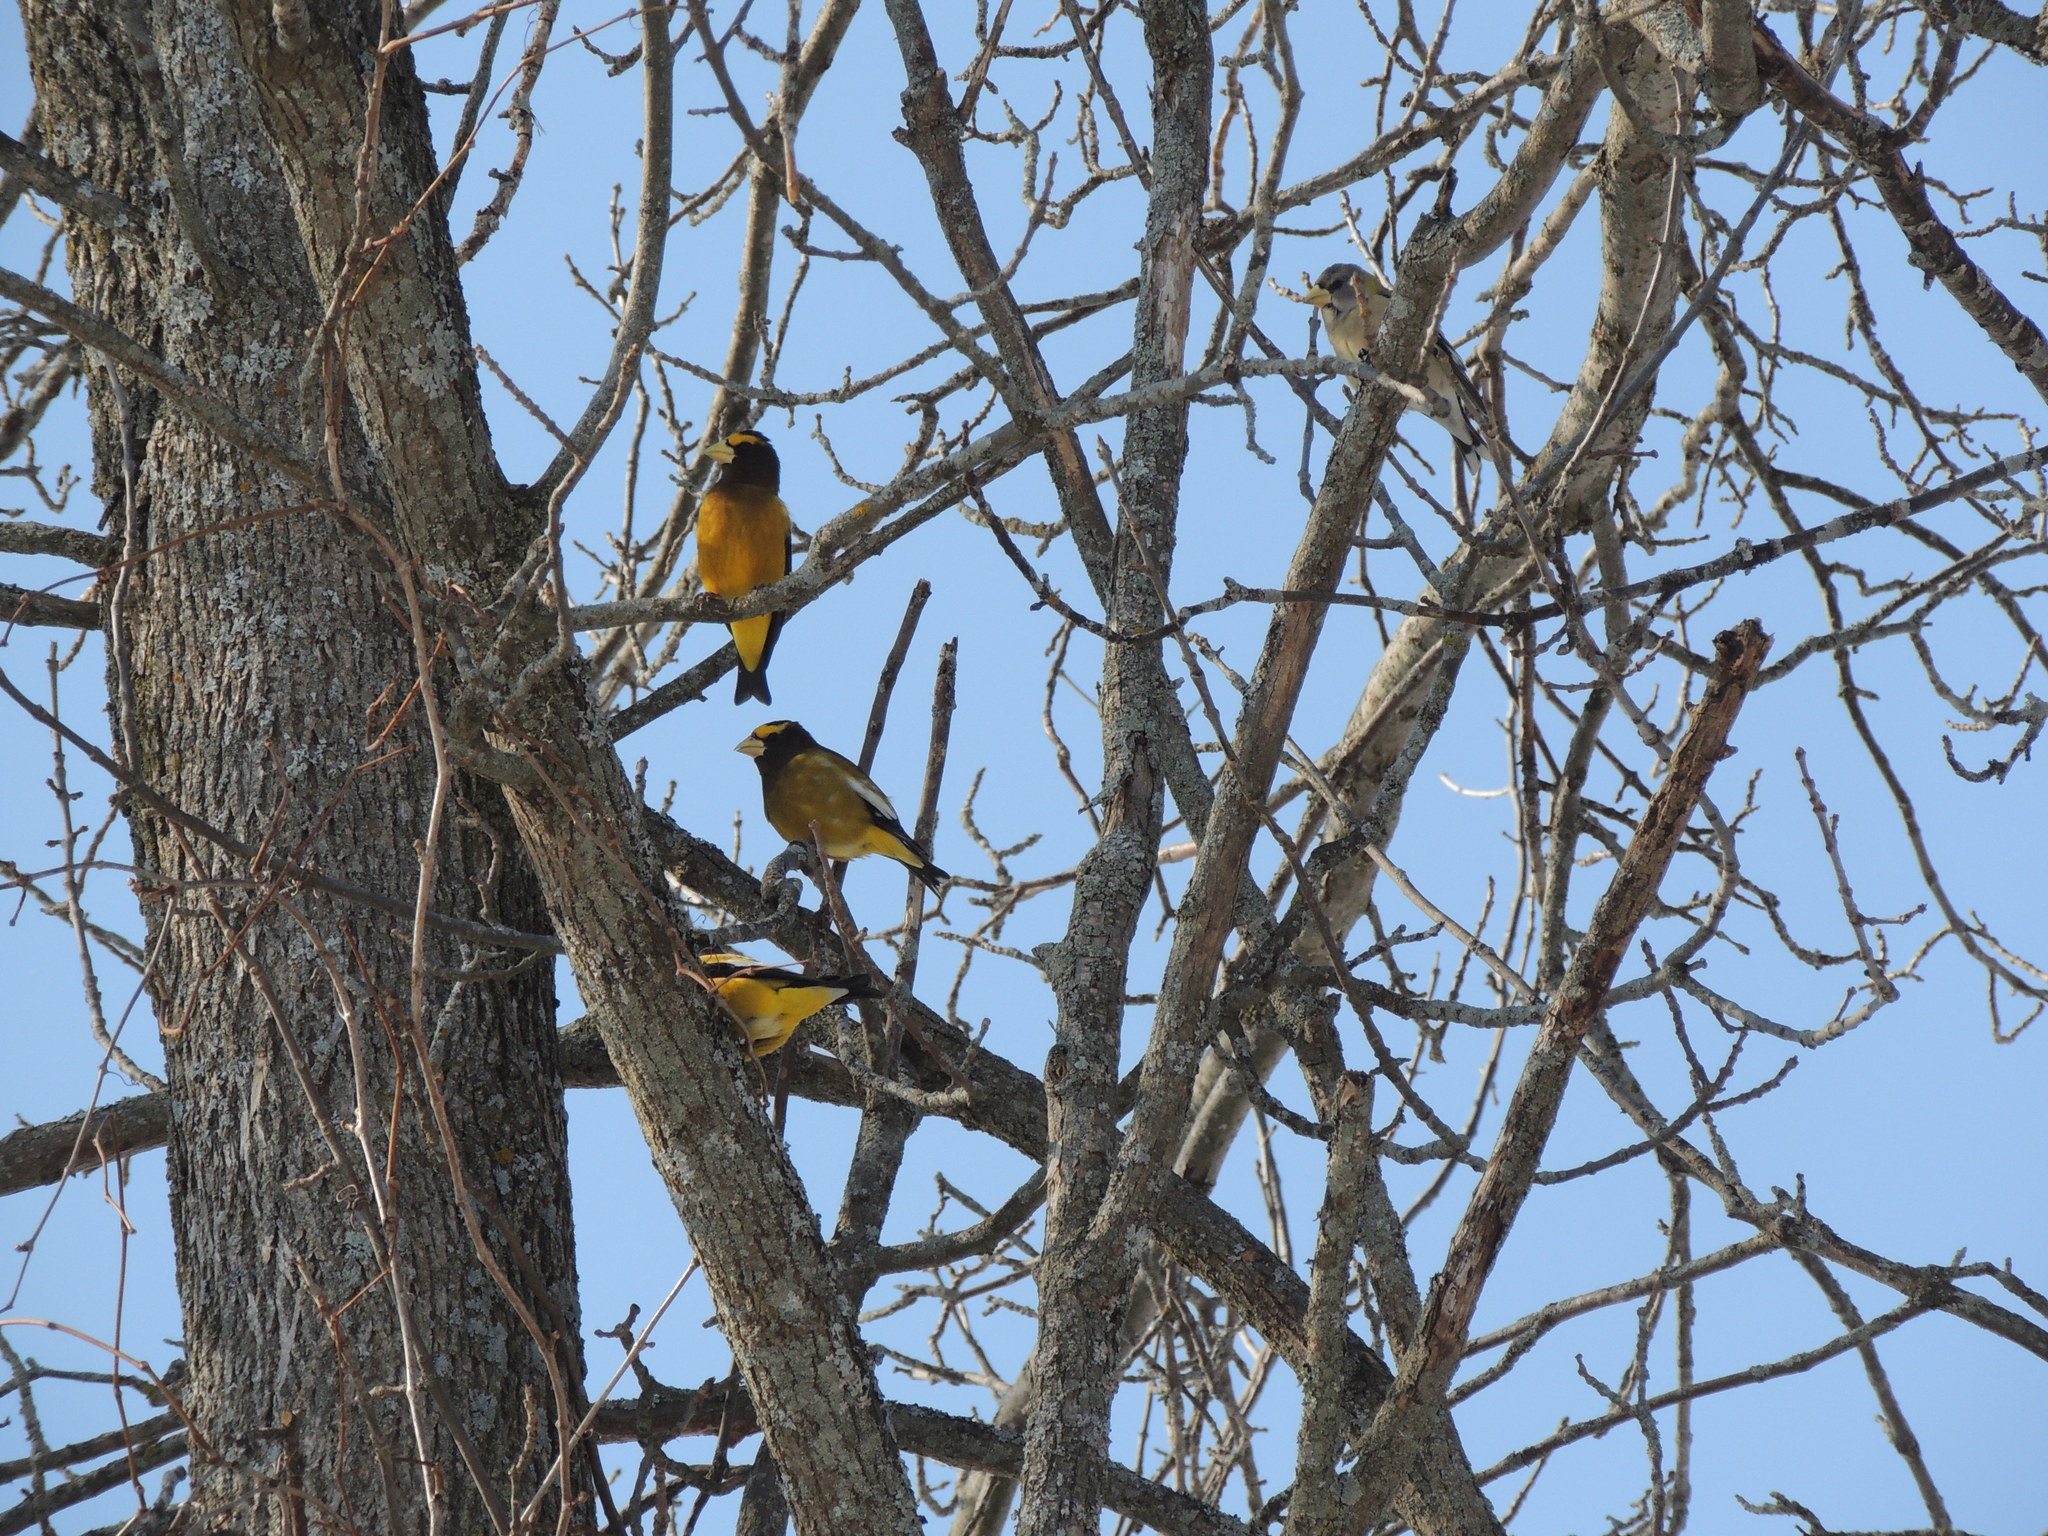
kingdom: Animalia
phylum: Chordata
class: Aves
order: Passeriformes
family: Fringillidae
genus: Hesperiphona
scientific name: Hesperiphona vespertina
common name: Evening grosbeak
